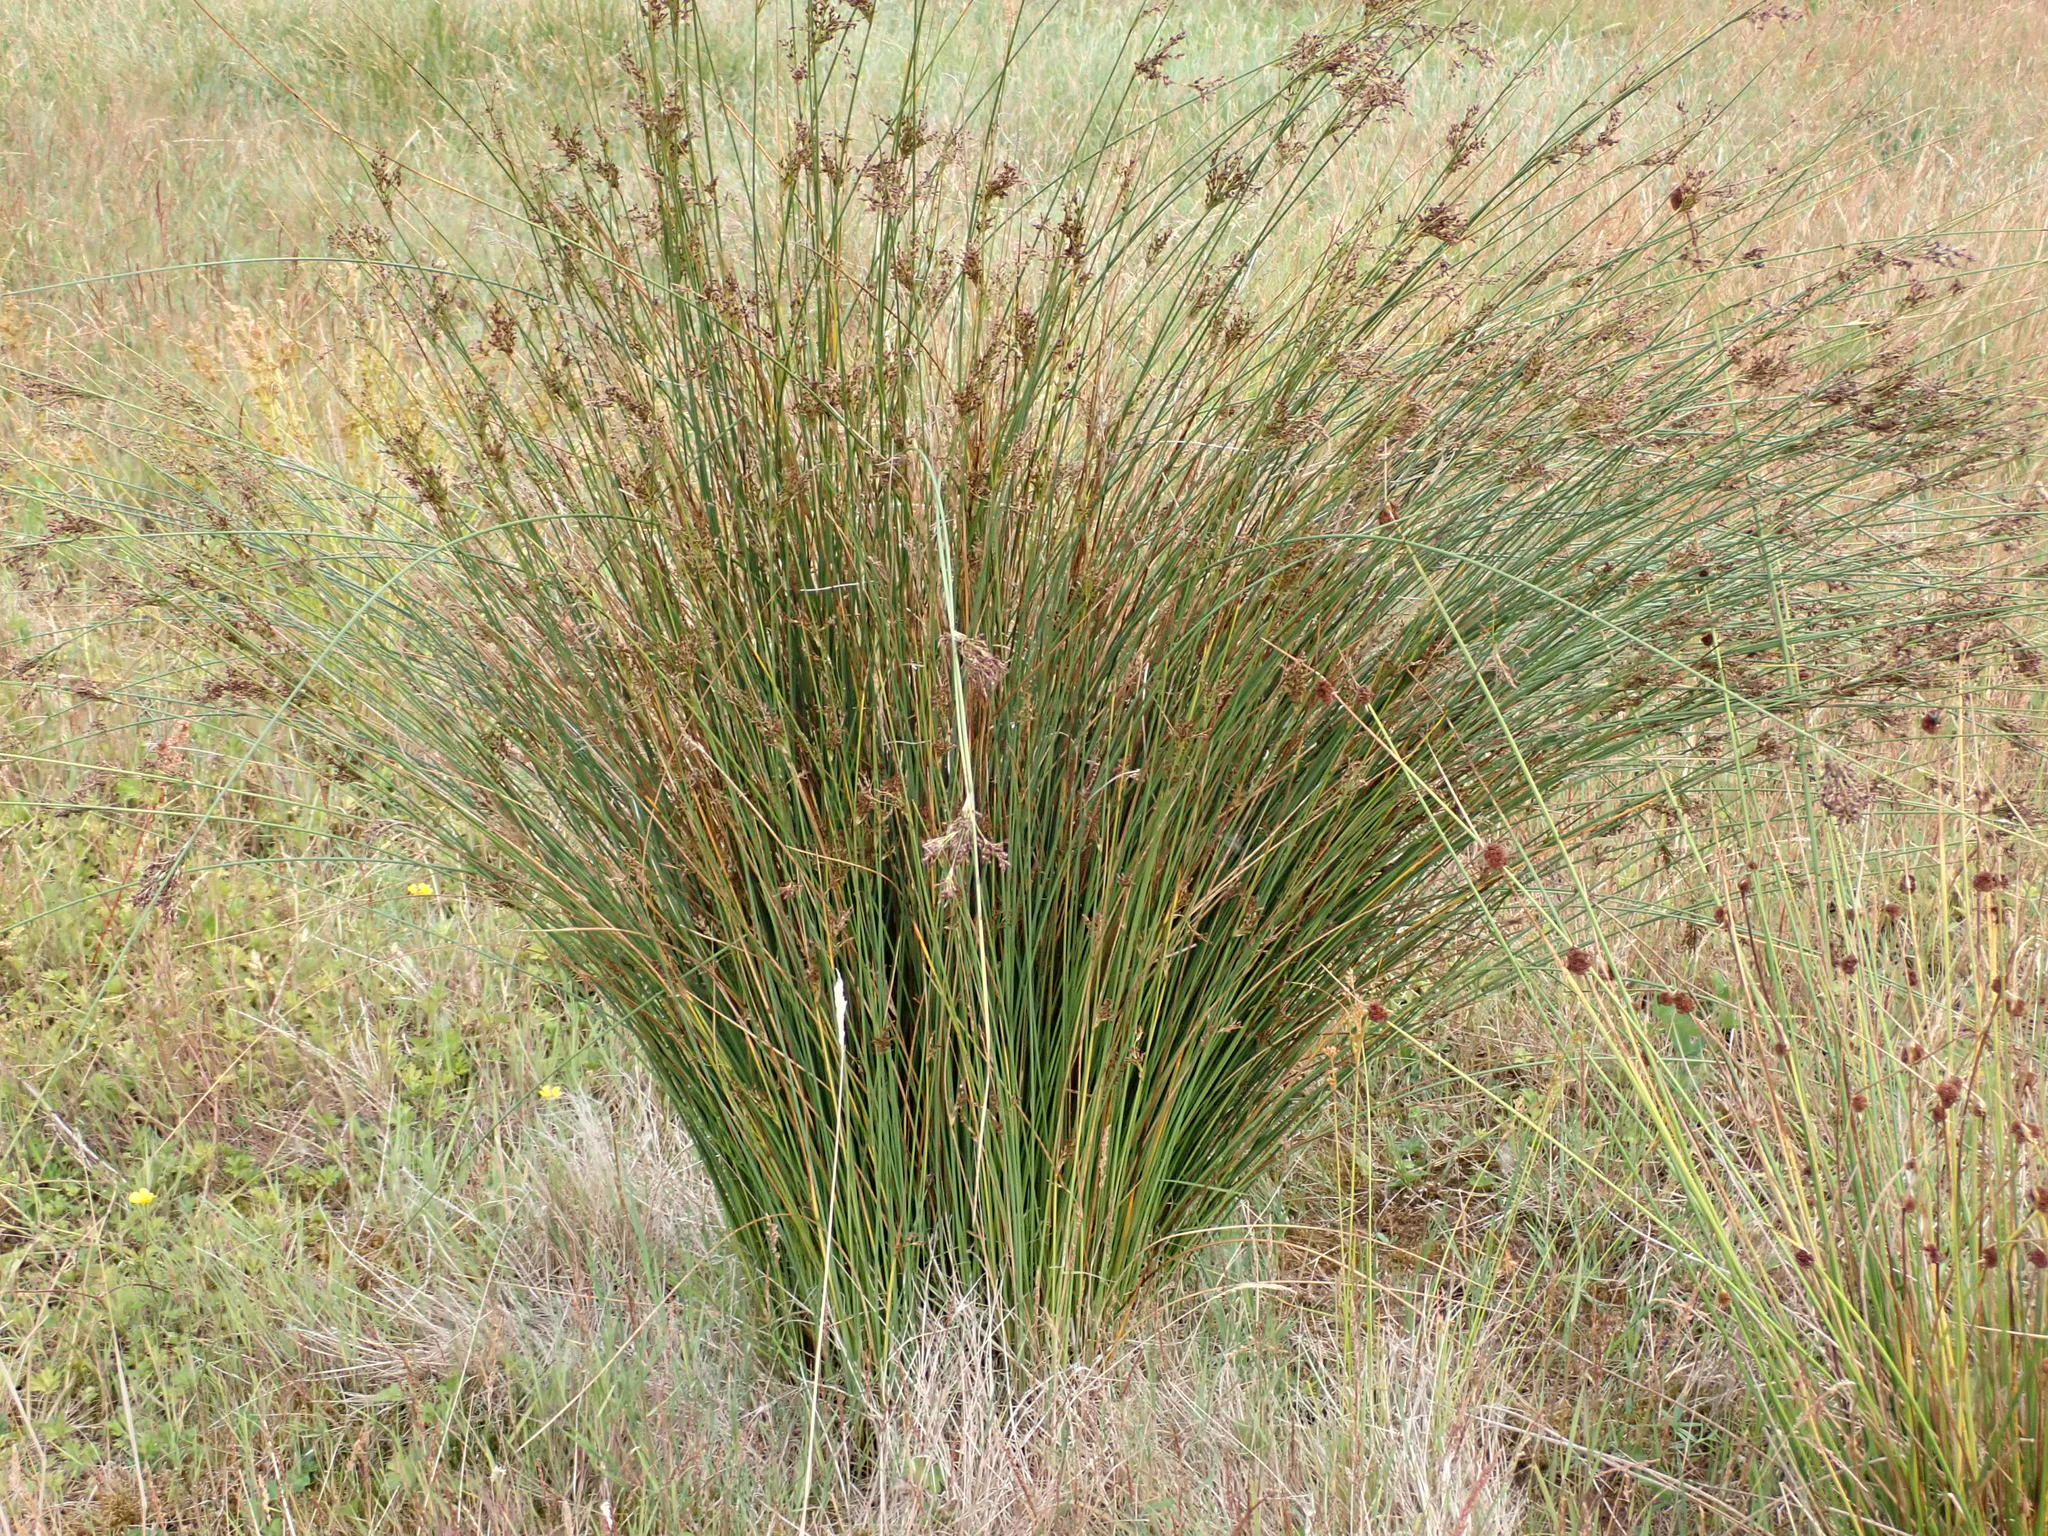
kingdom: Plantae
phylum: Tracheophyta
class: Liliopsida
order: Poales
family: Juncaceae
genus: Juncus
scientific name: Juncus inflexus
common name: Hard rush
